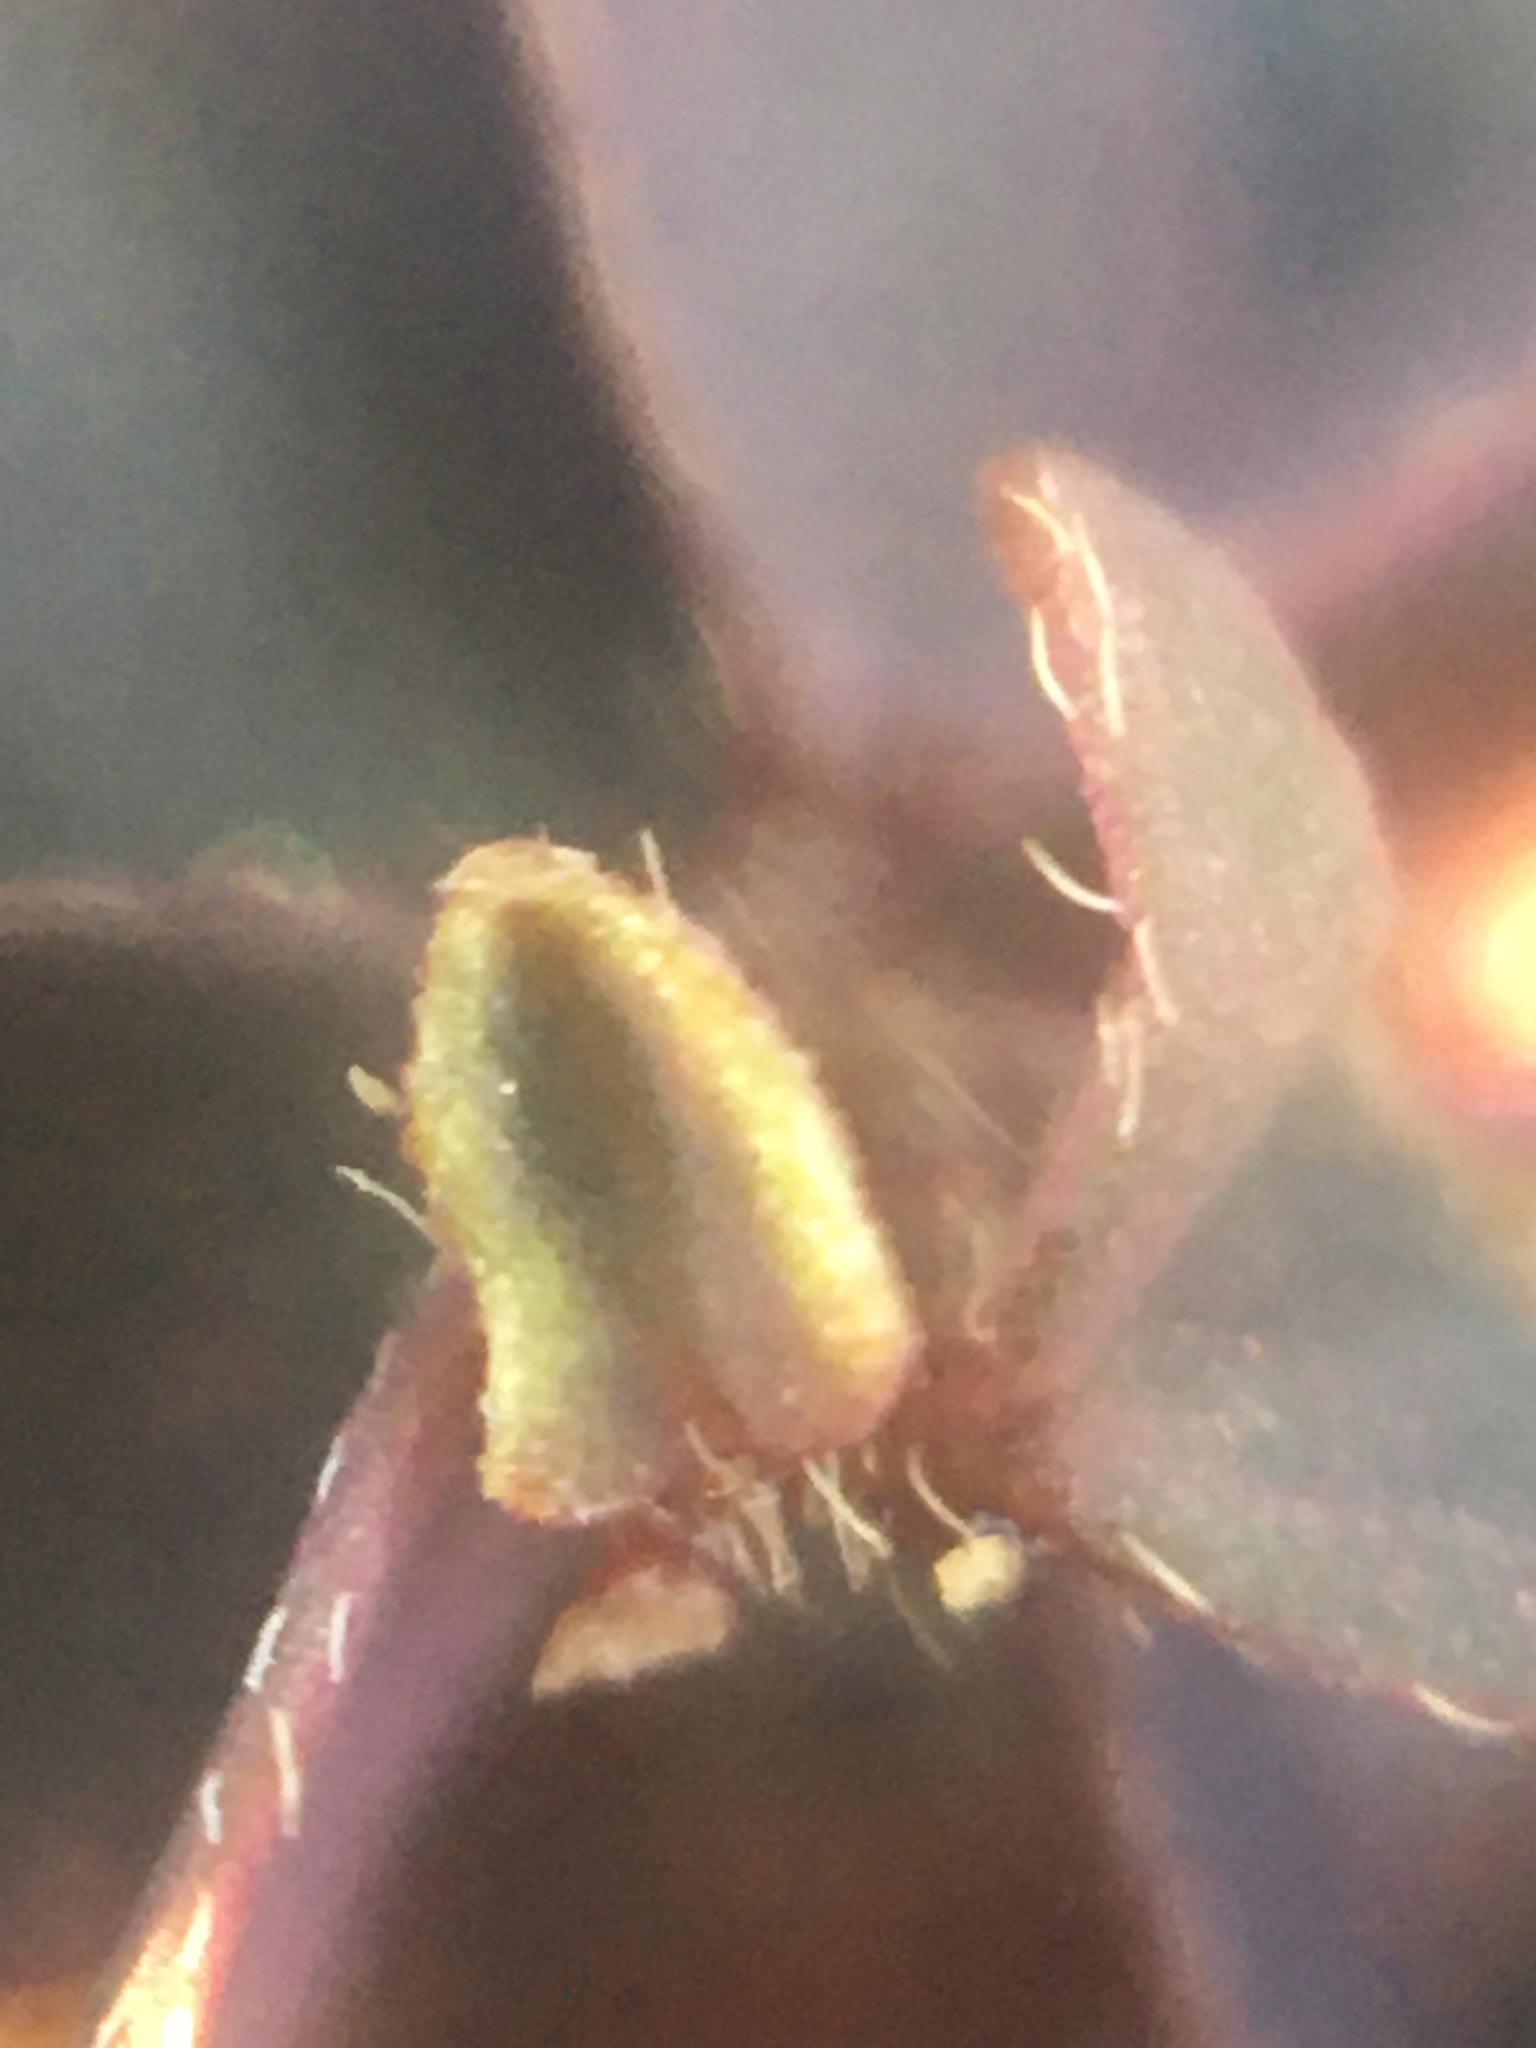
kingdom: Plantae
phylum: Tracheophyta
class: Magnoliopsida
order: Oxalidales
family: Oxalidaceae
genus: Oxalis
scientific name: Oxalis corniculata
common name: Procumbent yellow-sorrel
